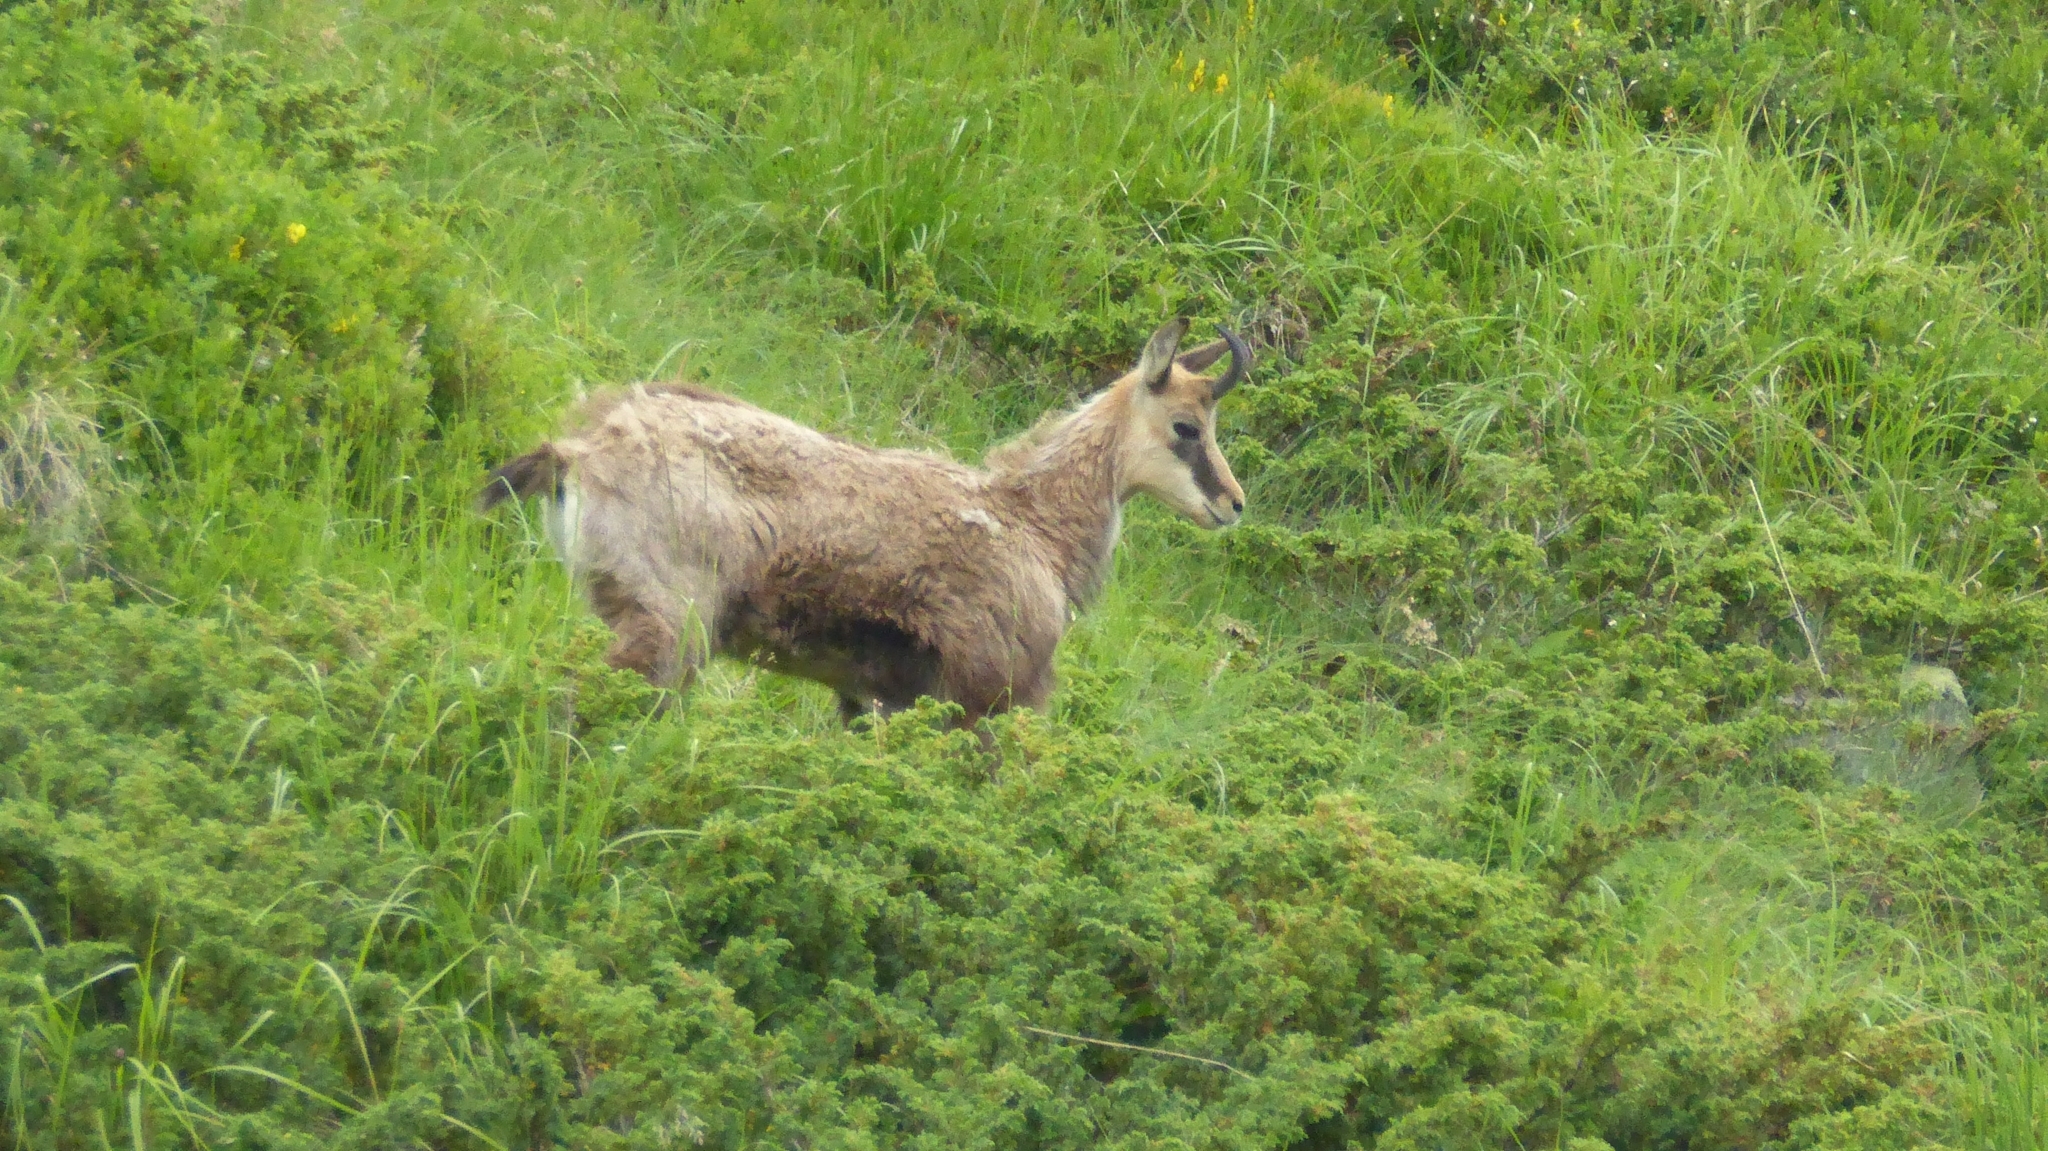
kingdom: Animalia
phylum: Chordata
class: Mammalia
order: Artiodactyla
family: Bovidae
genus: Rupicapra
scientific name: Rupicapra rupicapra
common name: Chamois
